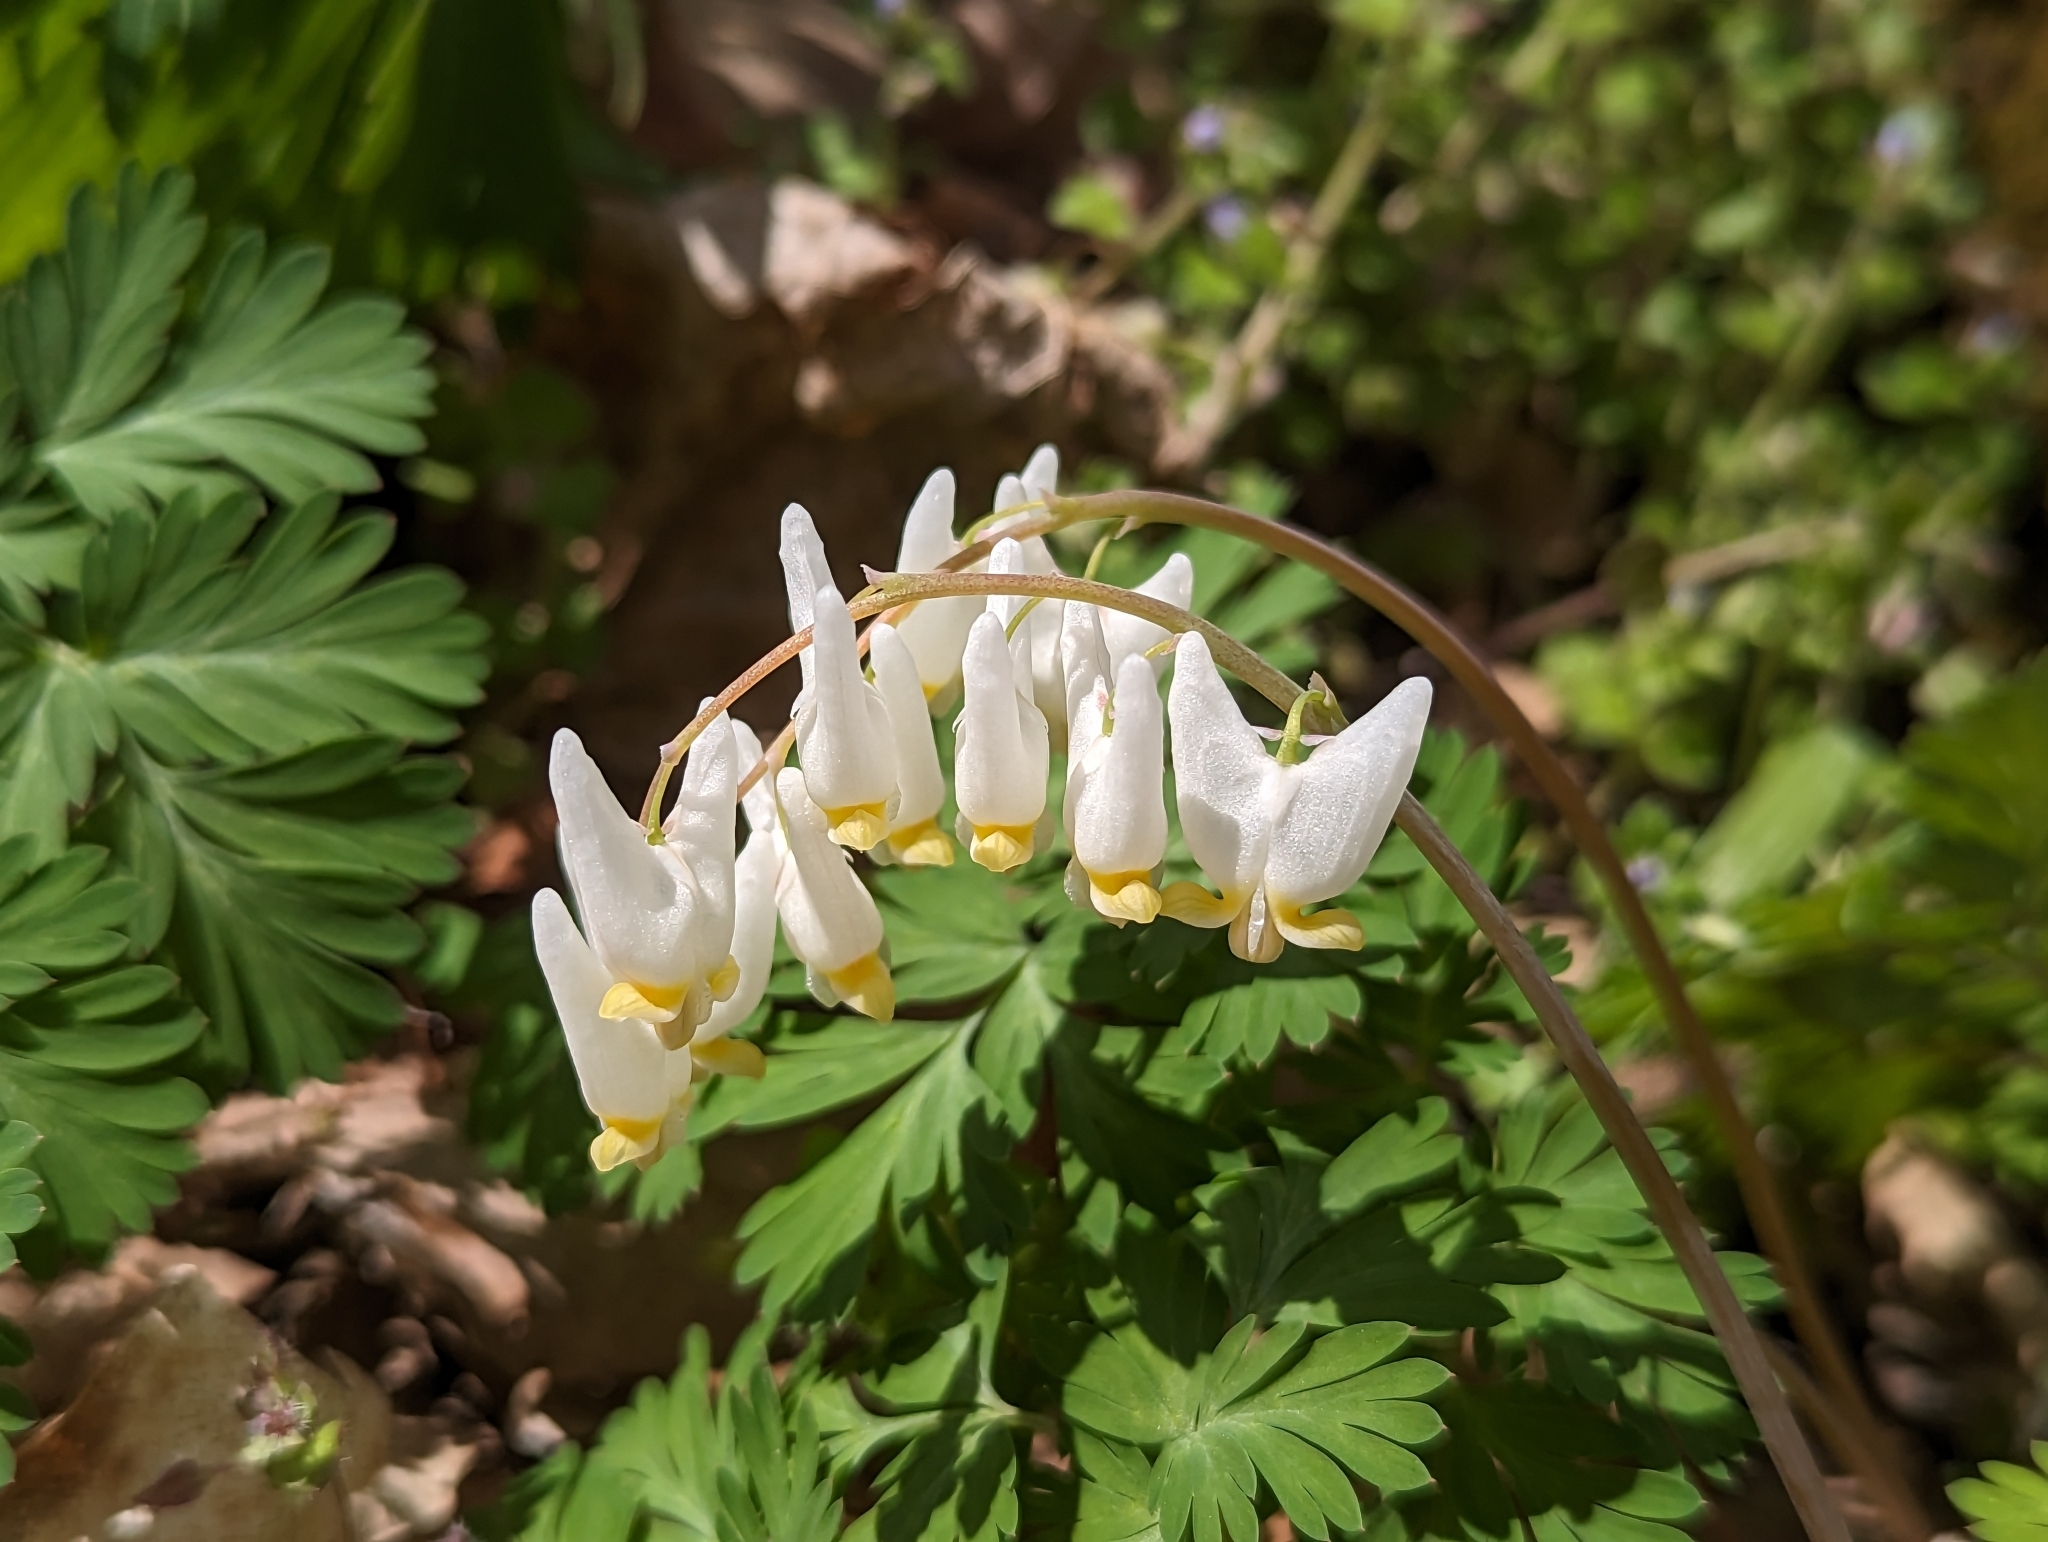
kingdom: Plantae
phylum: Tracheophyta
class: Magnoliopsida
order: Ranunculales
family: Papaveraceae
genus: Dicentra
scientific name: Dicentra cucullaria
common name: Dutchman's breeches
